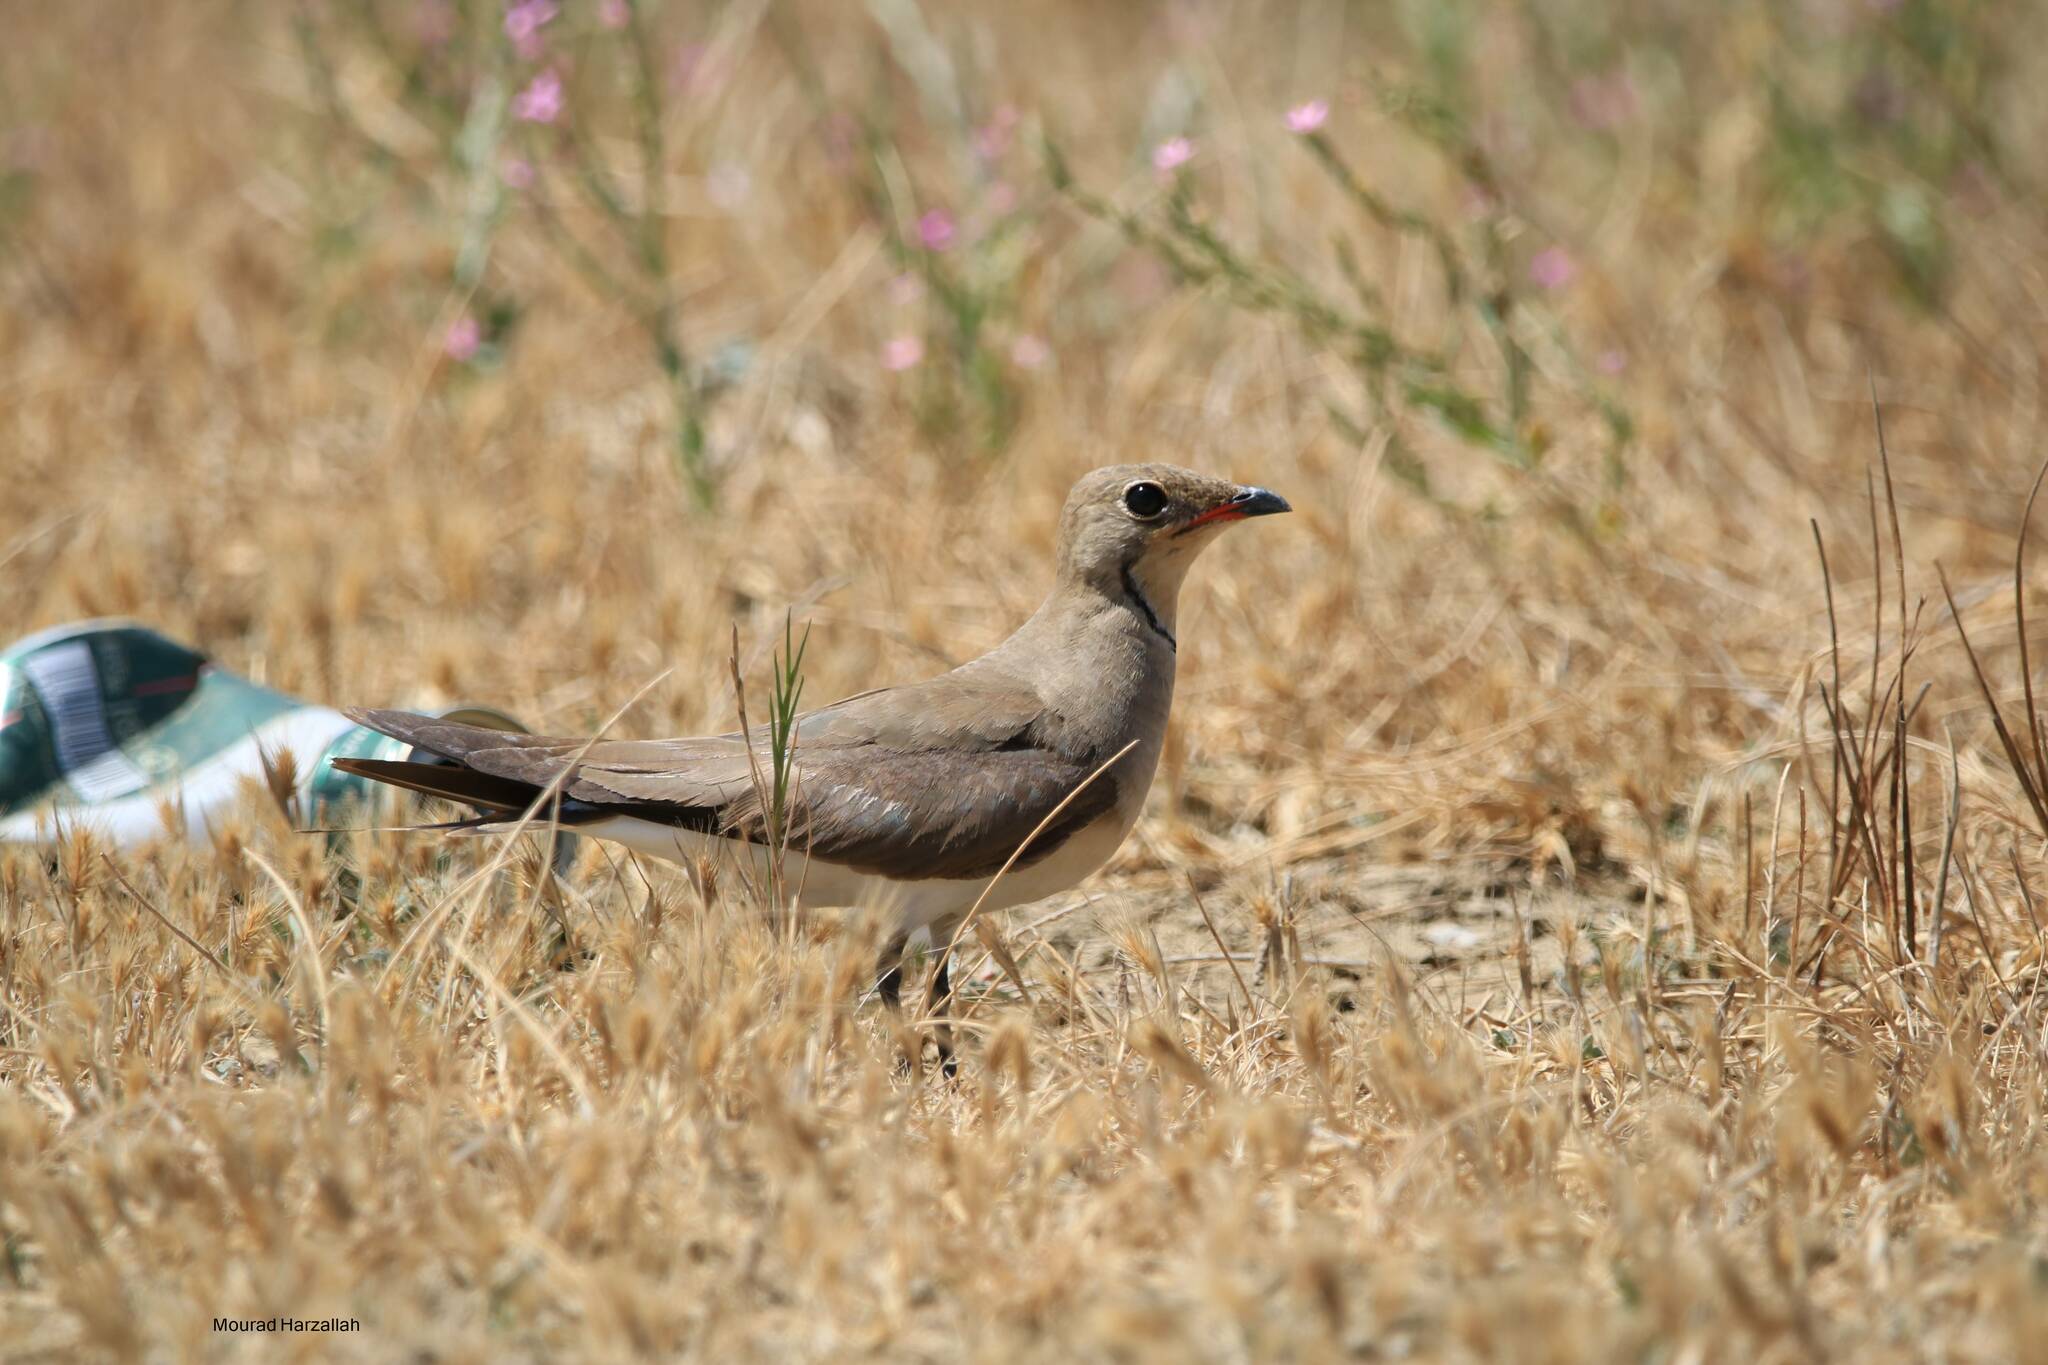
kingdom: Animalia
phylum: Chordata
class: Aves
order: Charadriiformes
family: Glareolidae
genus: Glareola
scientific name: Glareola pratincola
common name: Collared pratincole
